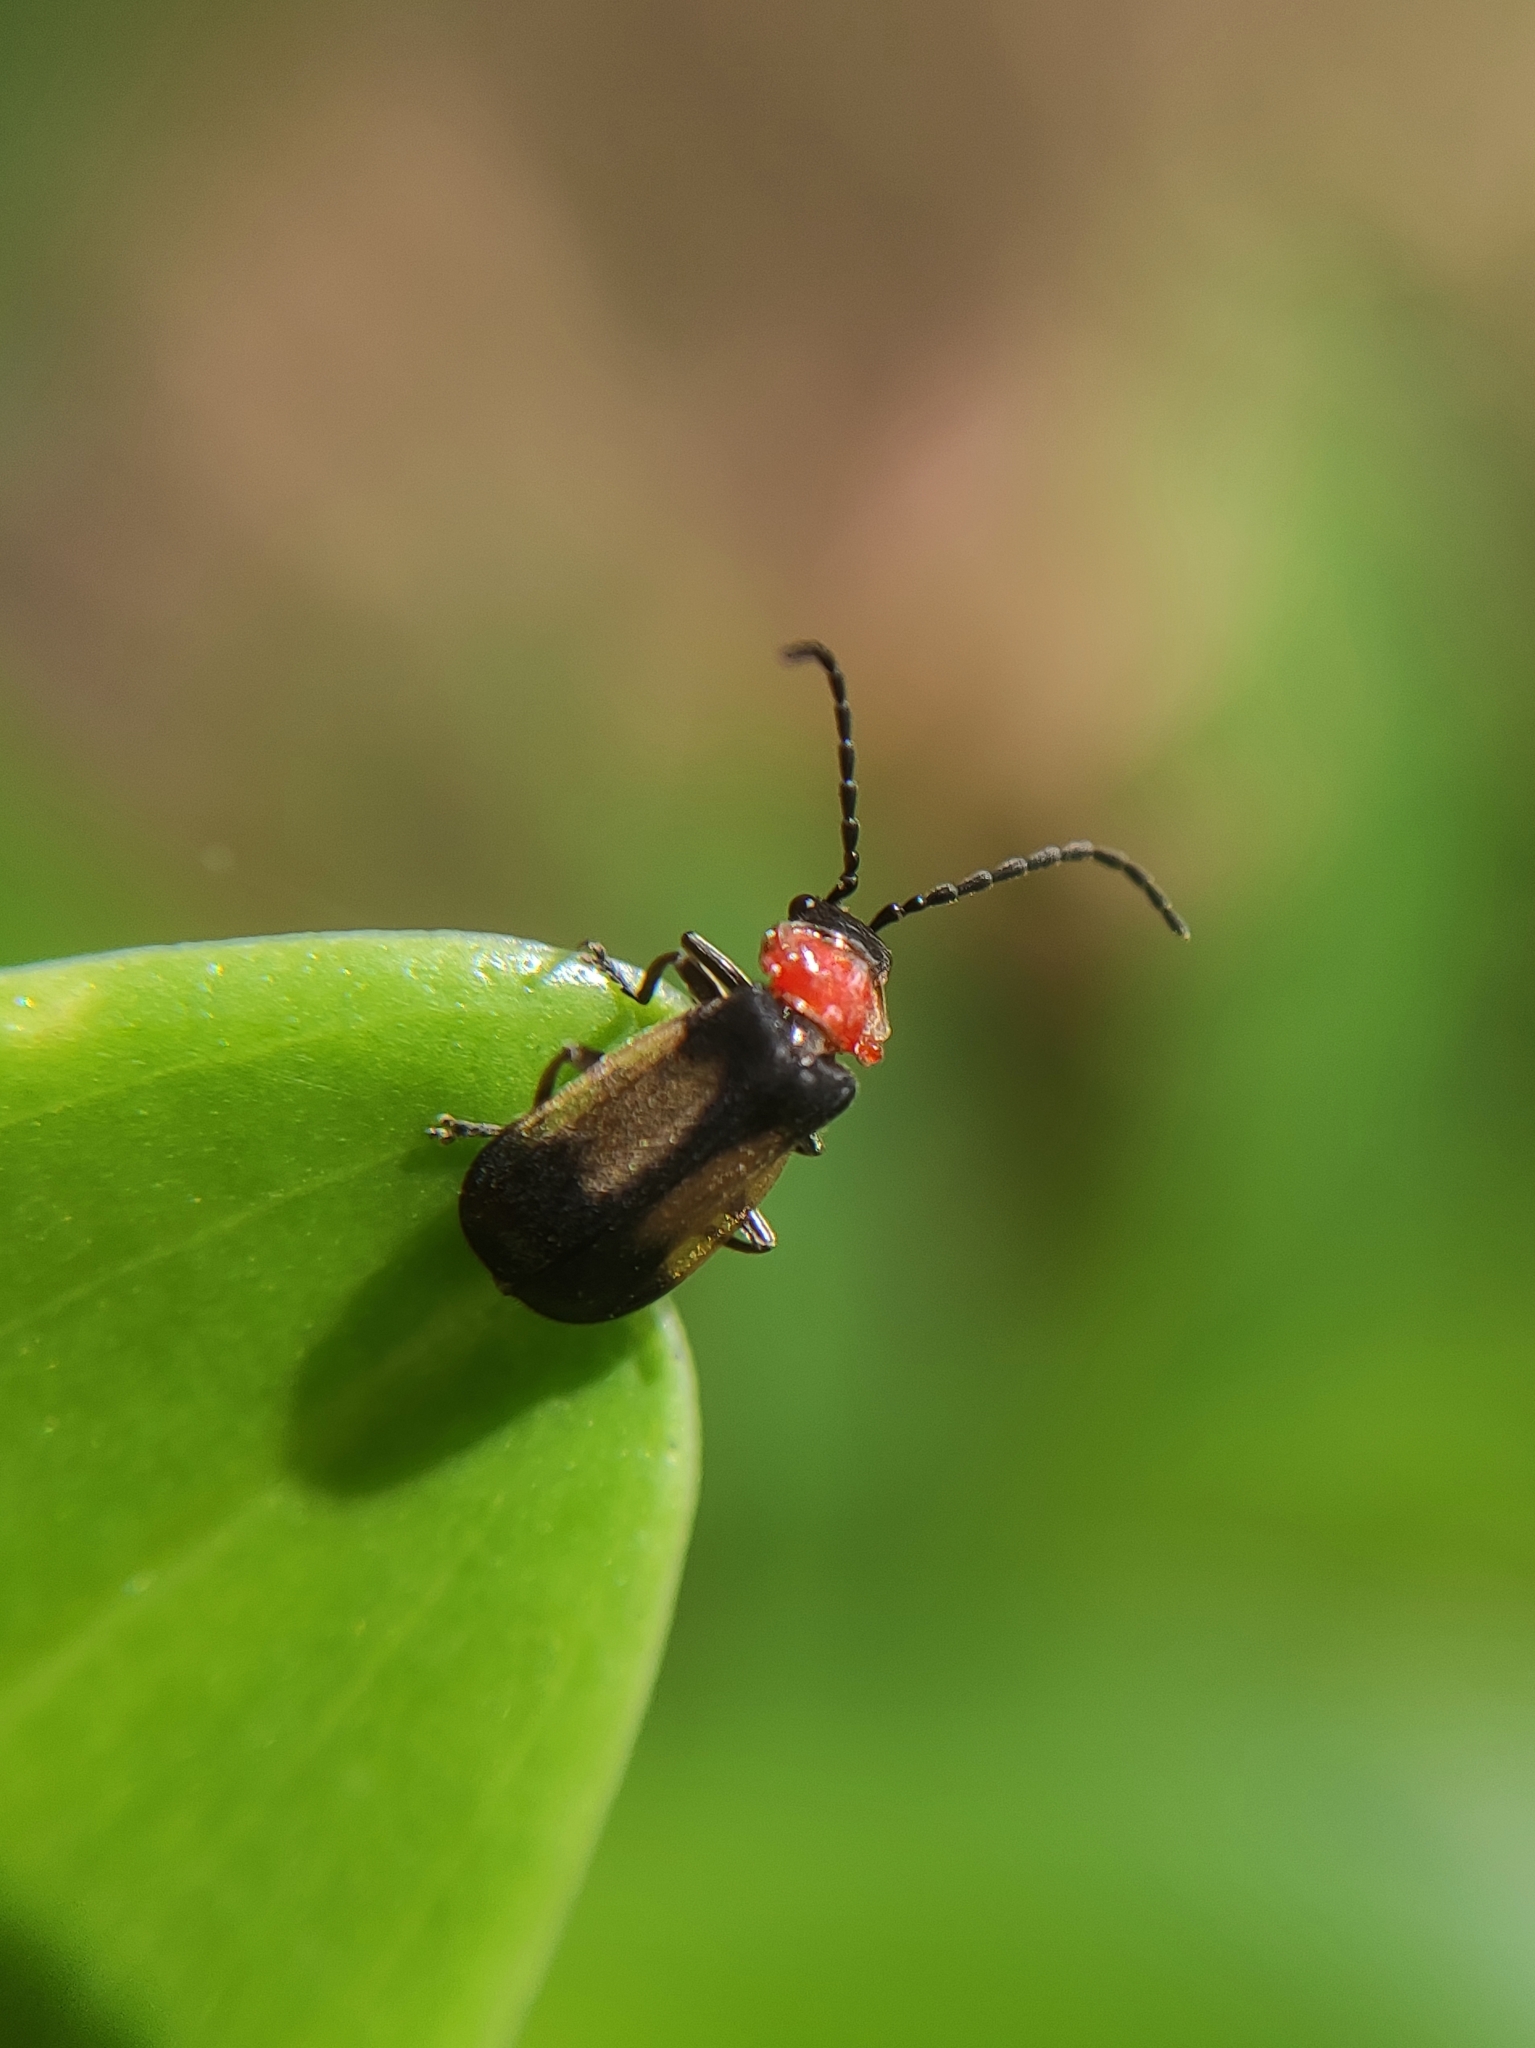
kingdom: Animalia
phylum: Arthropoda
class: Insecta
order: Coleoptera
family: Cantharidae
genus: Silis
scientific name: Silis
